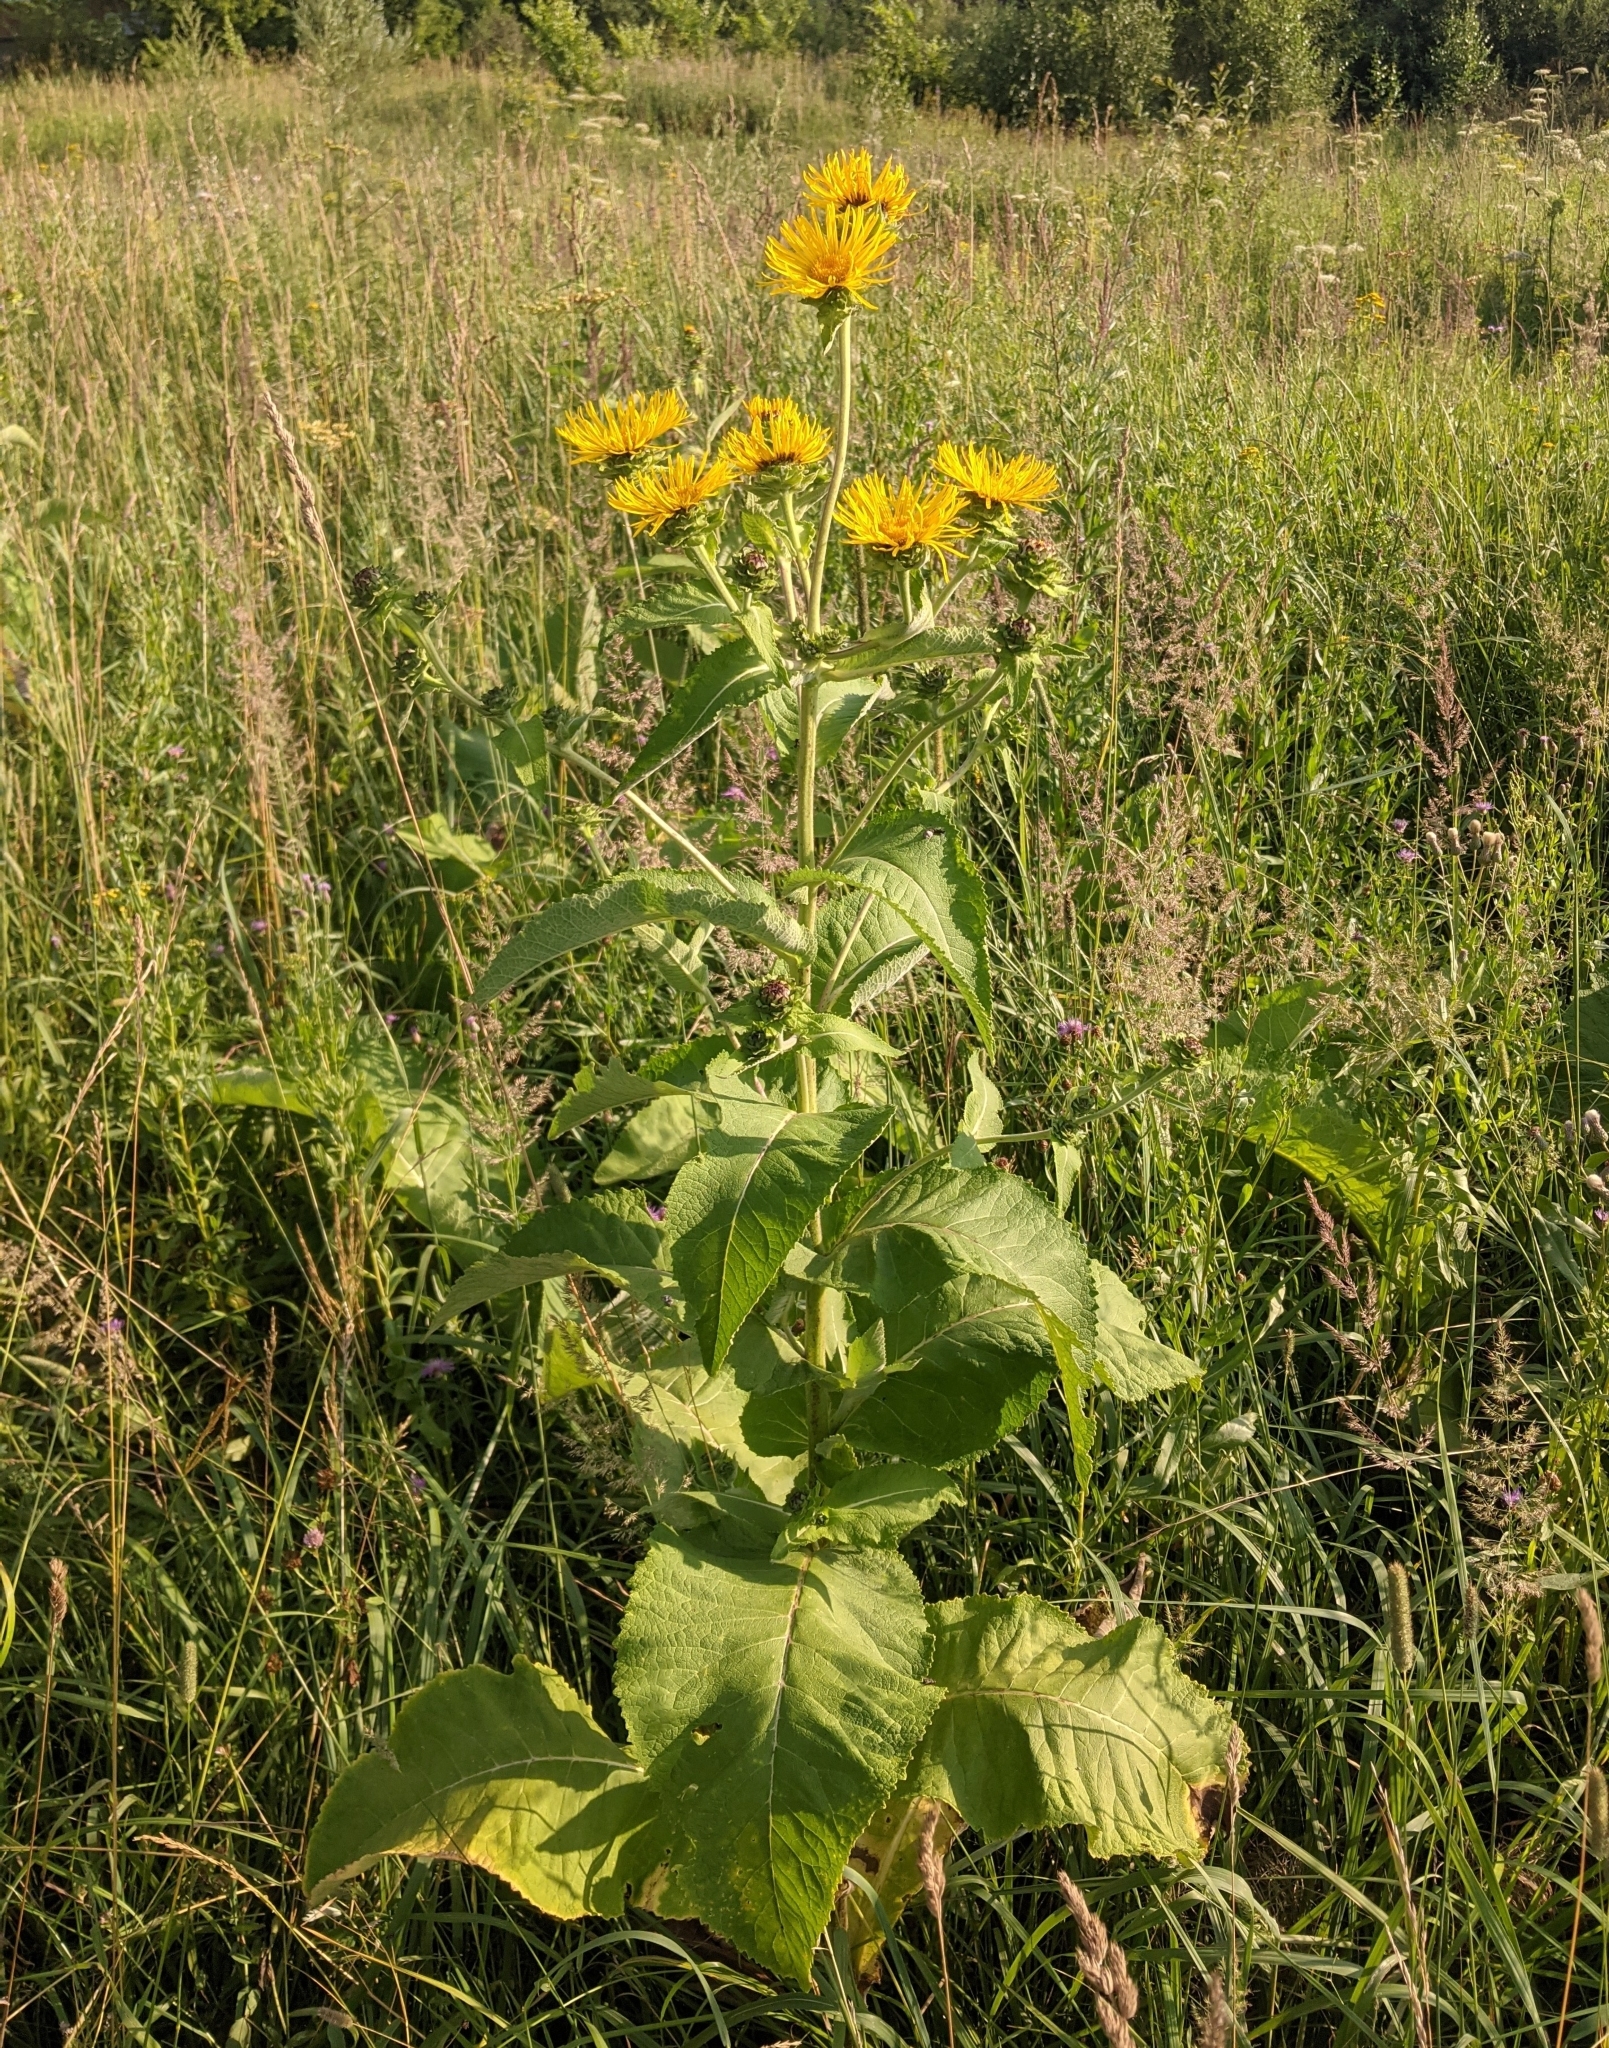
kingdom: Plantae
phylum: Tracheophyta
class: Magnoliopsida
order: Asterales
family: Asteraceae
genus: Inula
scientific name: Inula helenium
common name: Elecampane
